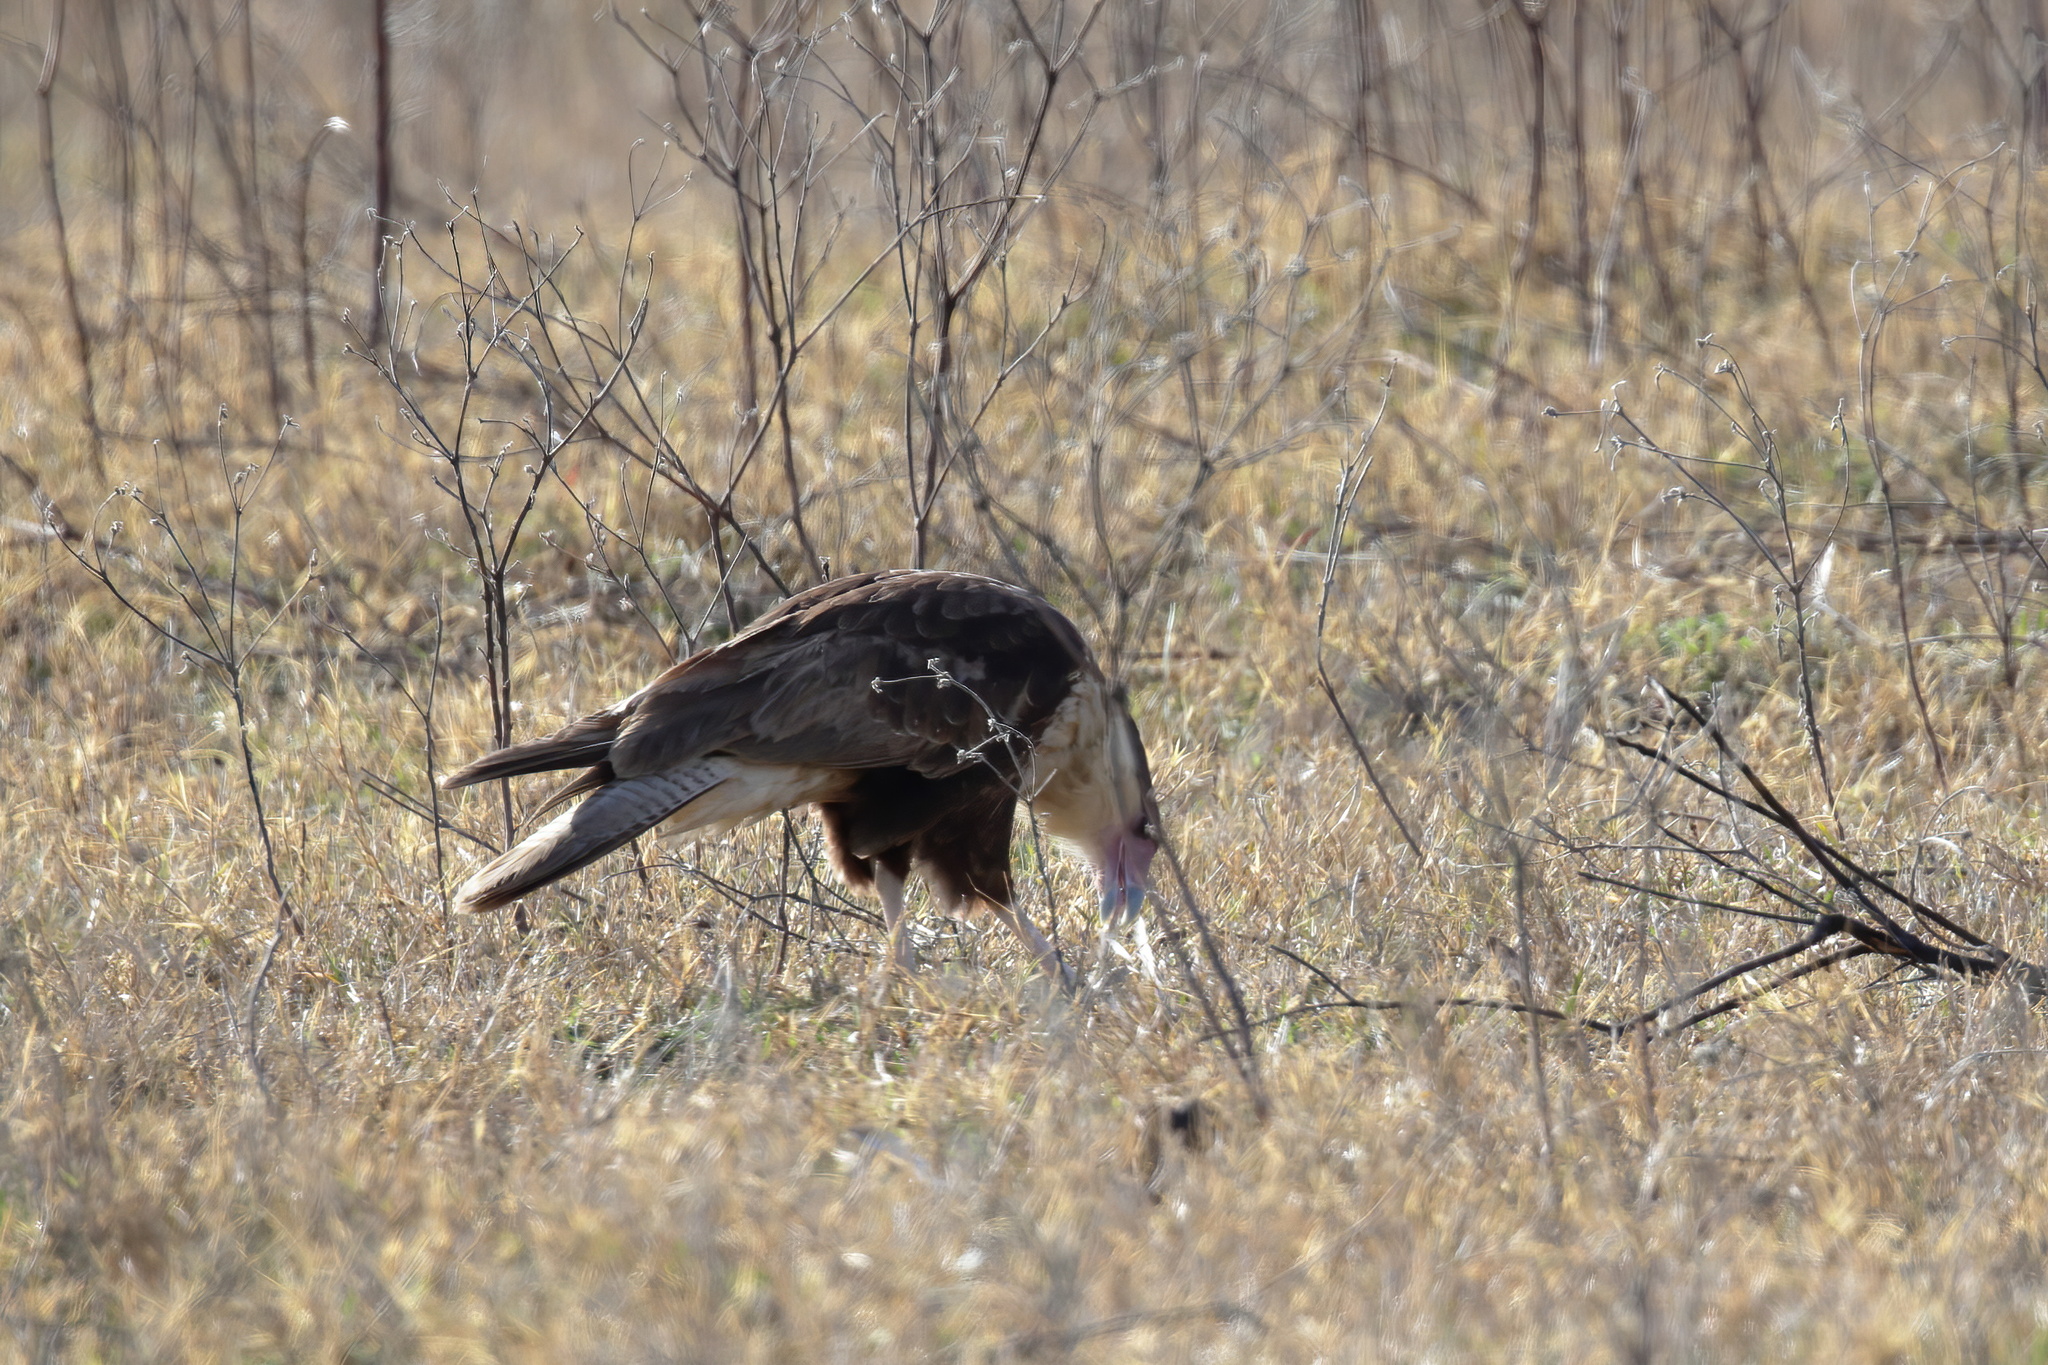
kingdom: Animalia
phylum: Chordata
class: Aves
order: Falconiformes
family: Falconidae
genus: Caracara
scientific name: Caracara plancus
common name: Southern caracara
